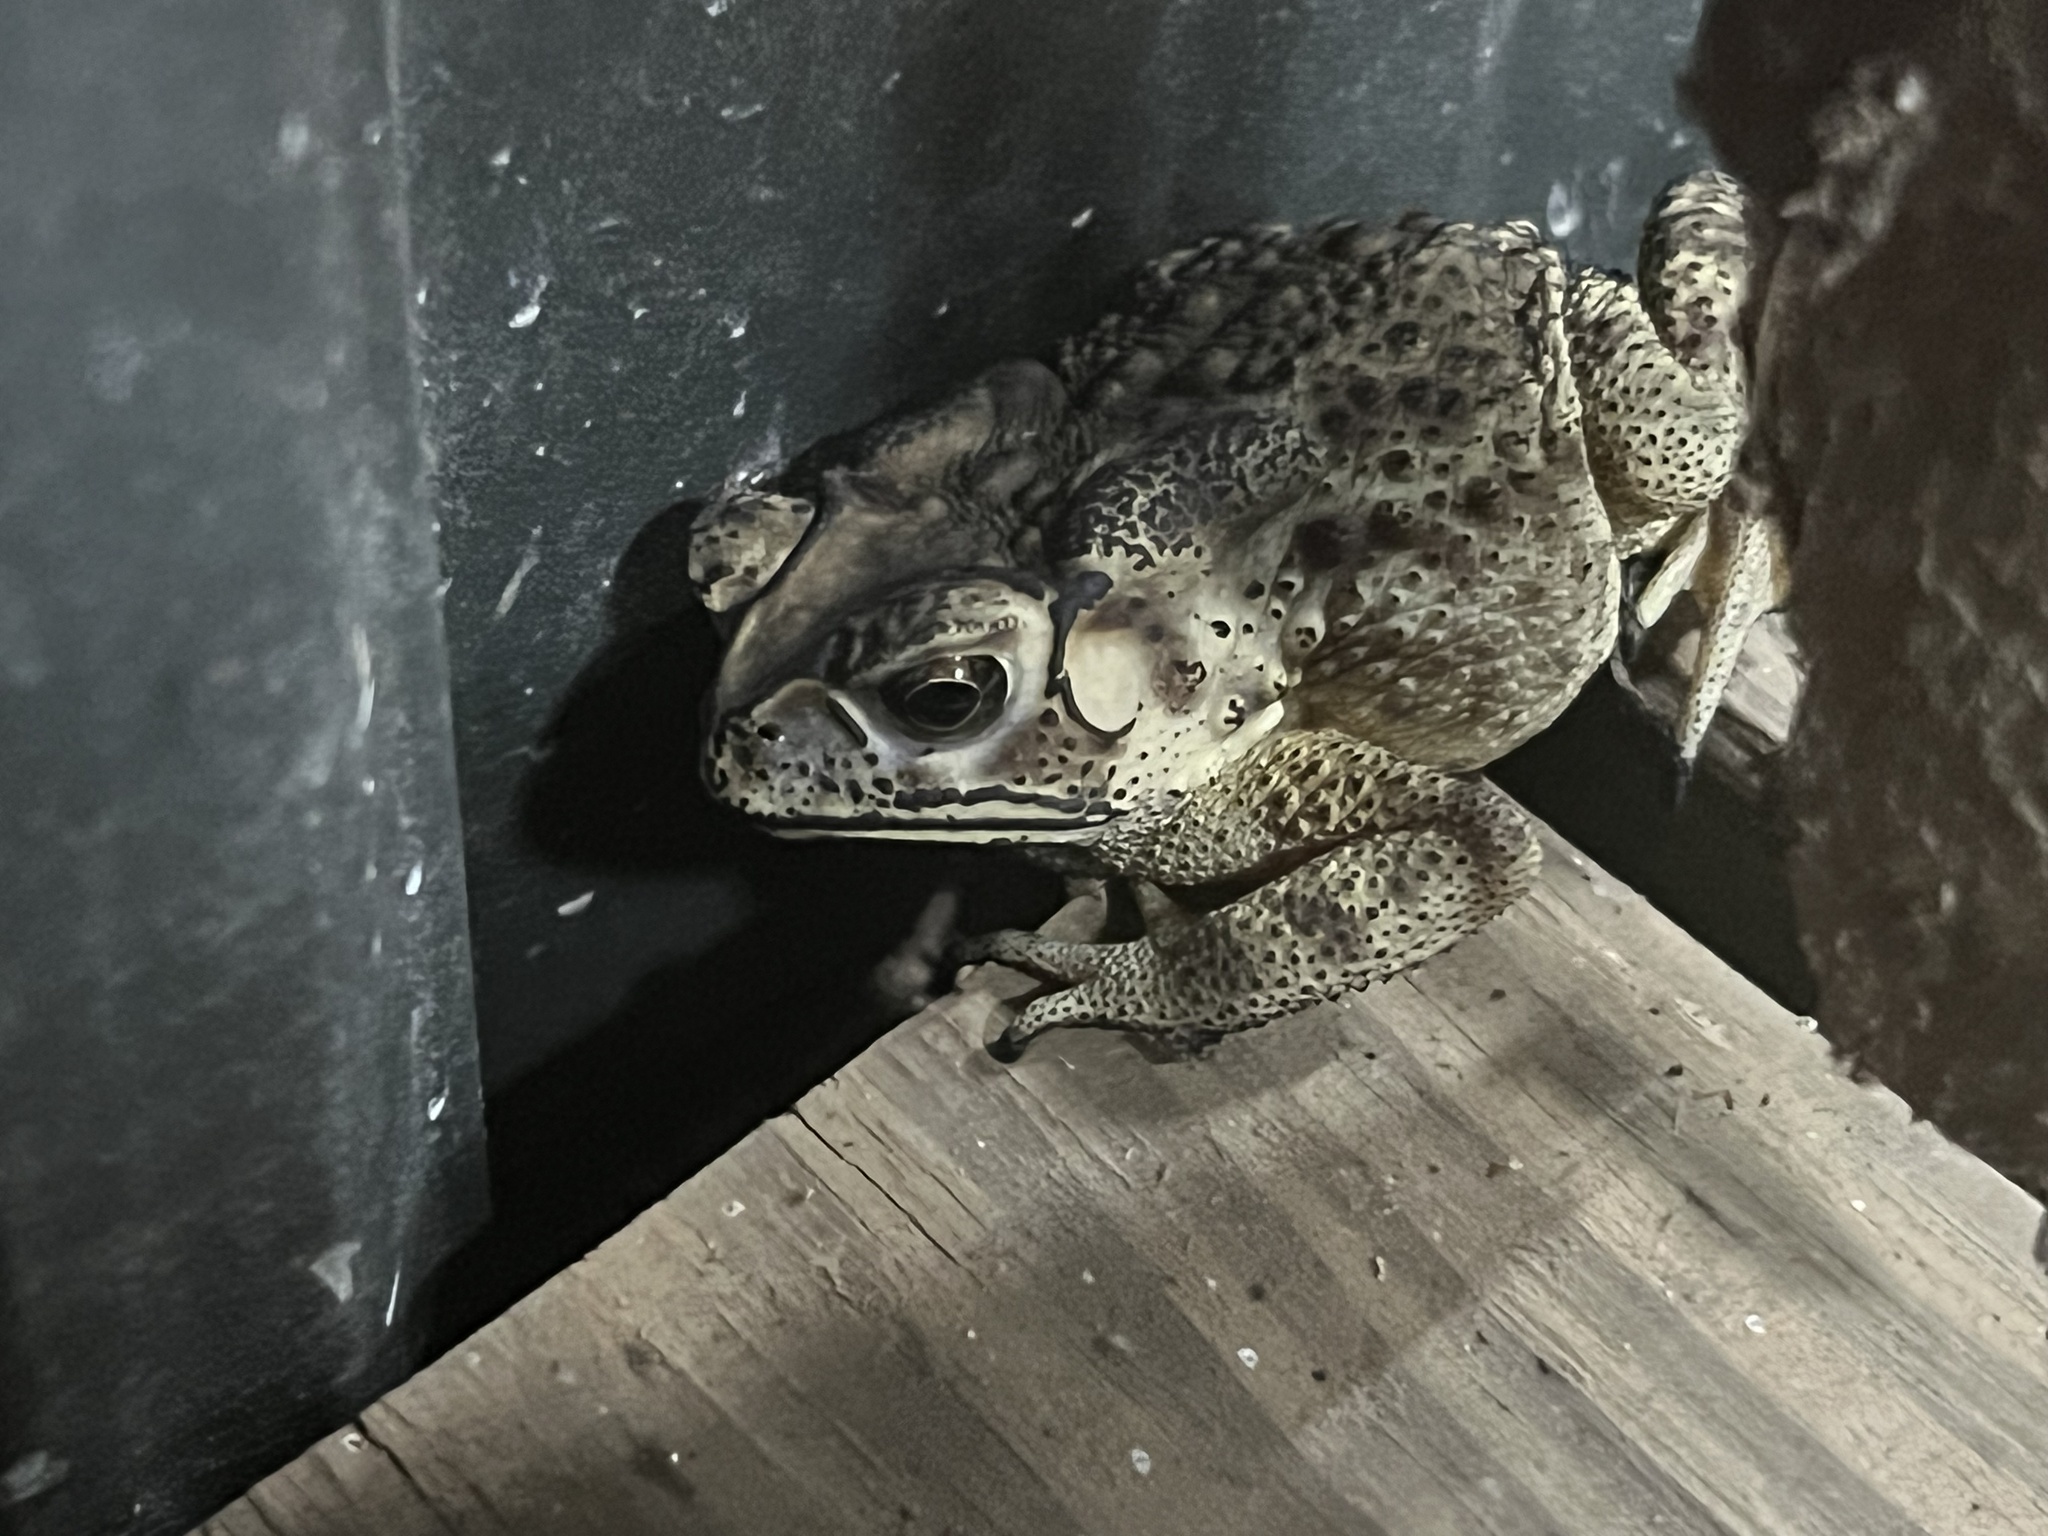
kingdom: Animalia
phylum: Chordata
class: Amphibia
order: Anura
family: Bufonidae
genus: Duttaphrynus
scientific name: Duttaphrynus melanostictus
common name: Common sunda toad
